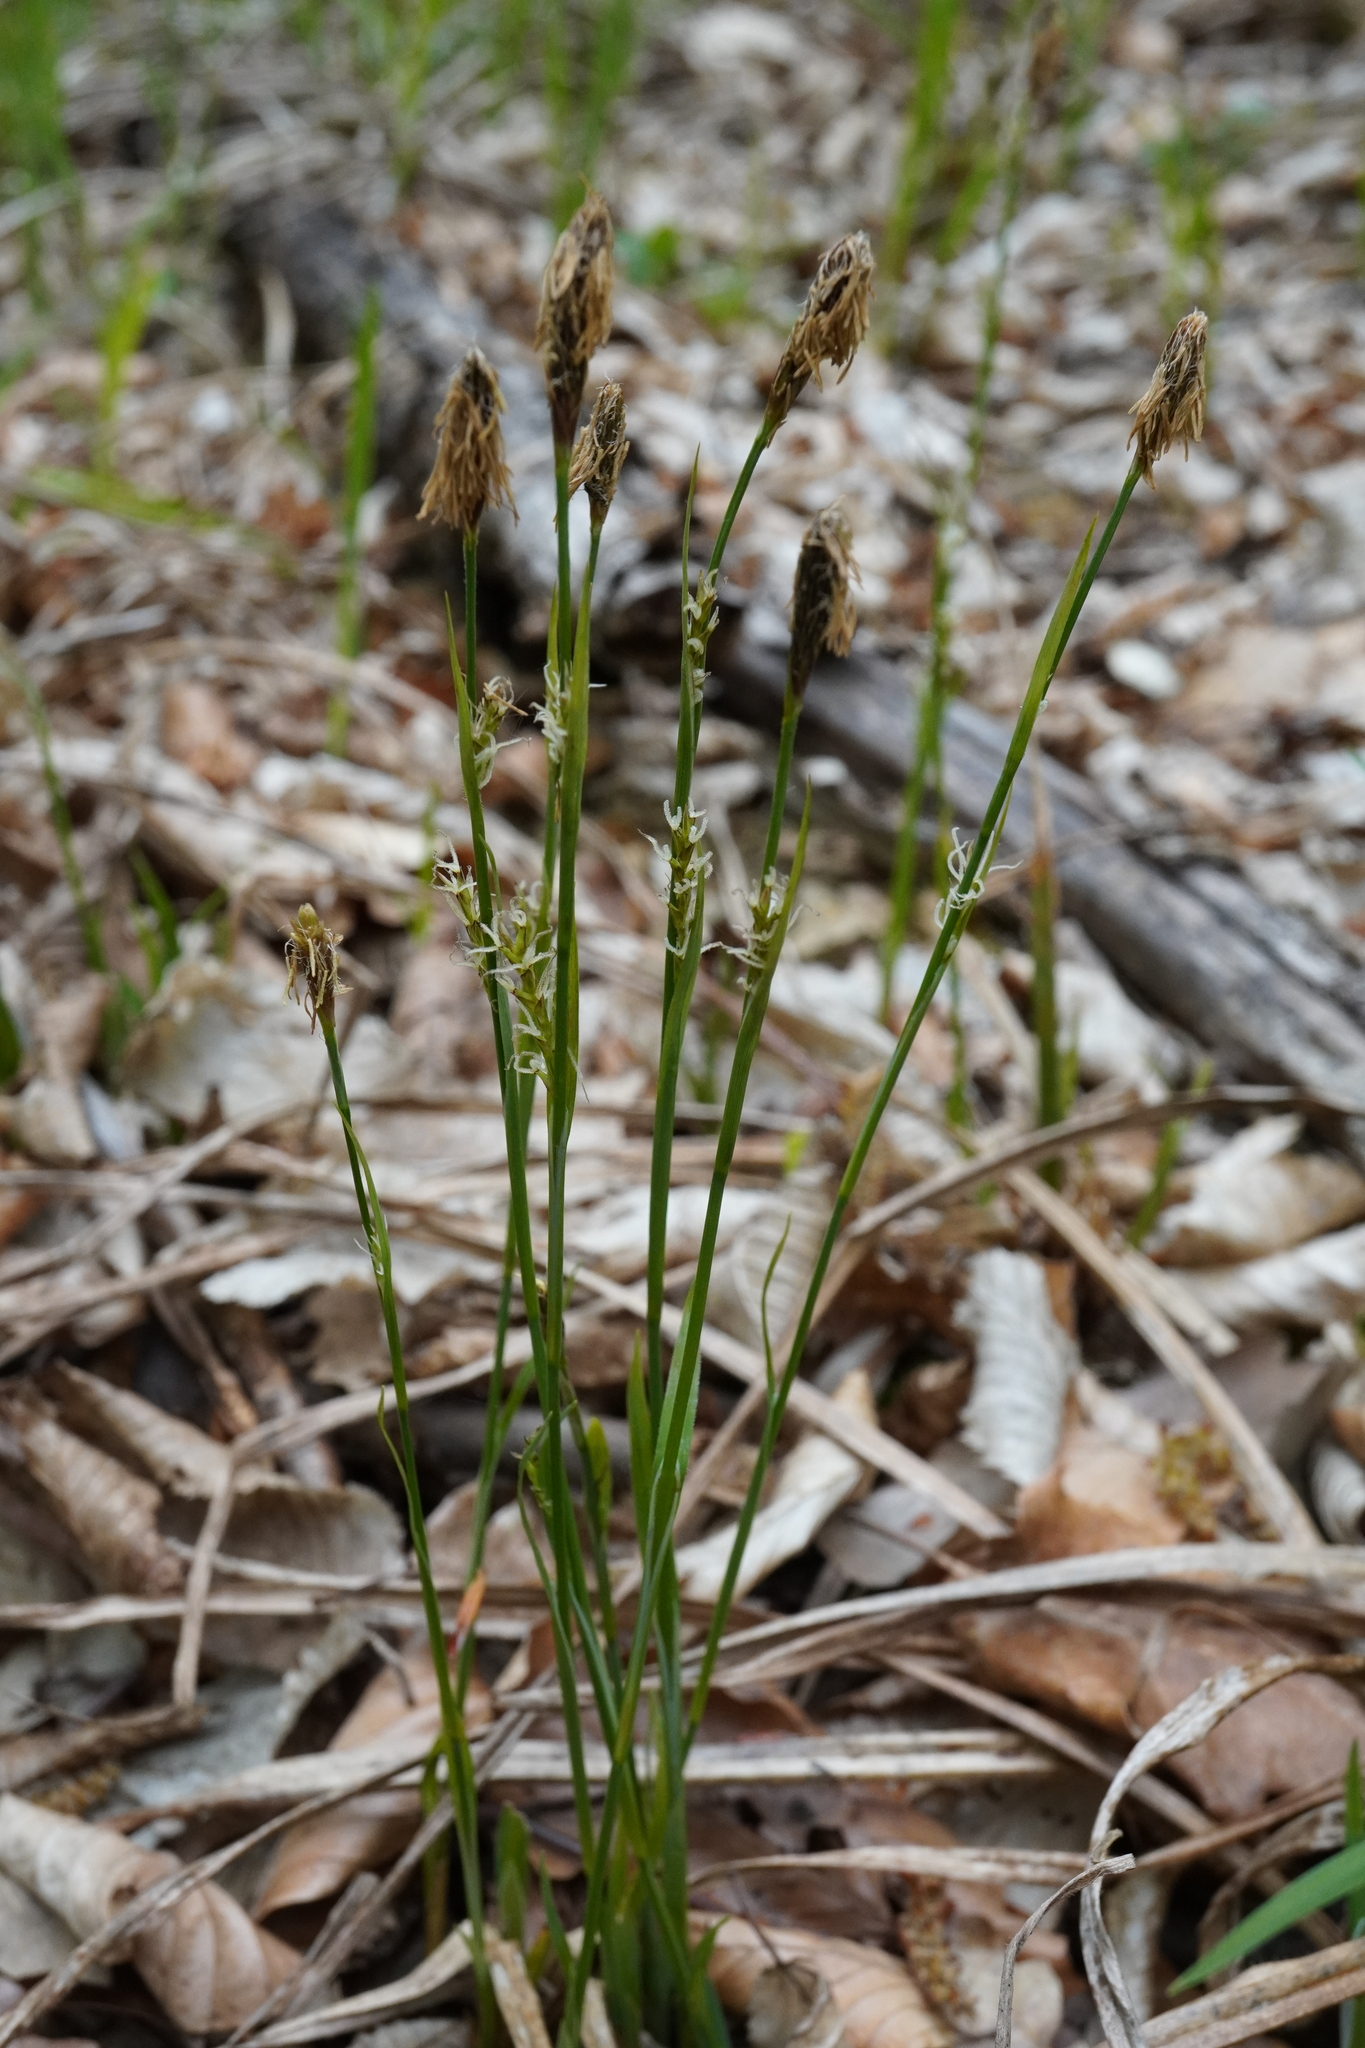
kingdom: Plantae
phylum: Tracheophyta
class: Liliopsida
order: Poales
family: Cyperaceae
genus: Carex
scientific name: Carex pilosa
